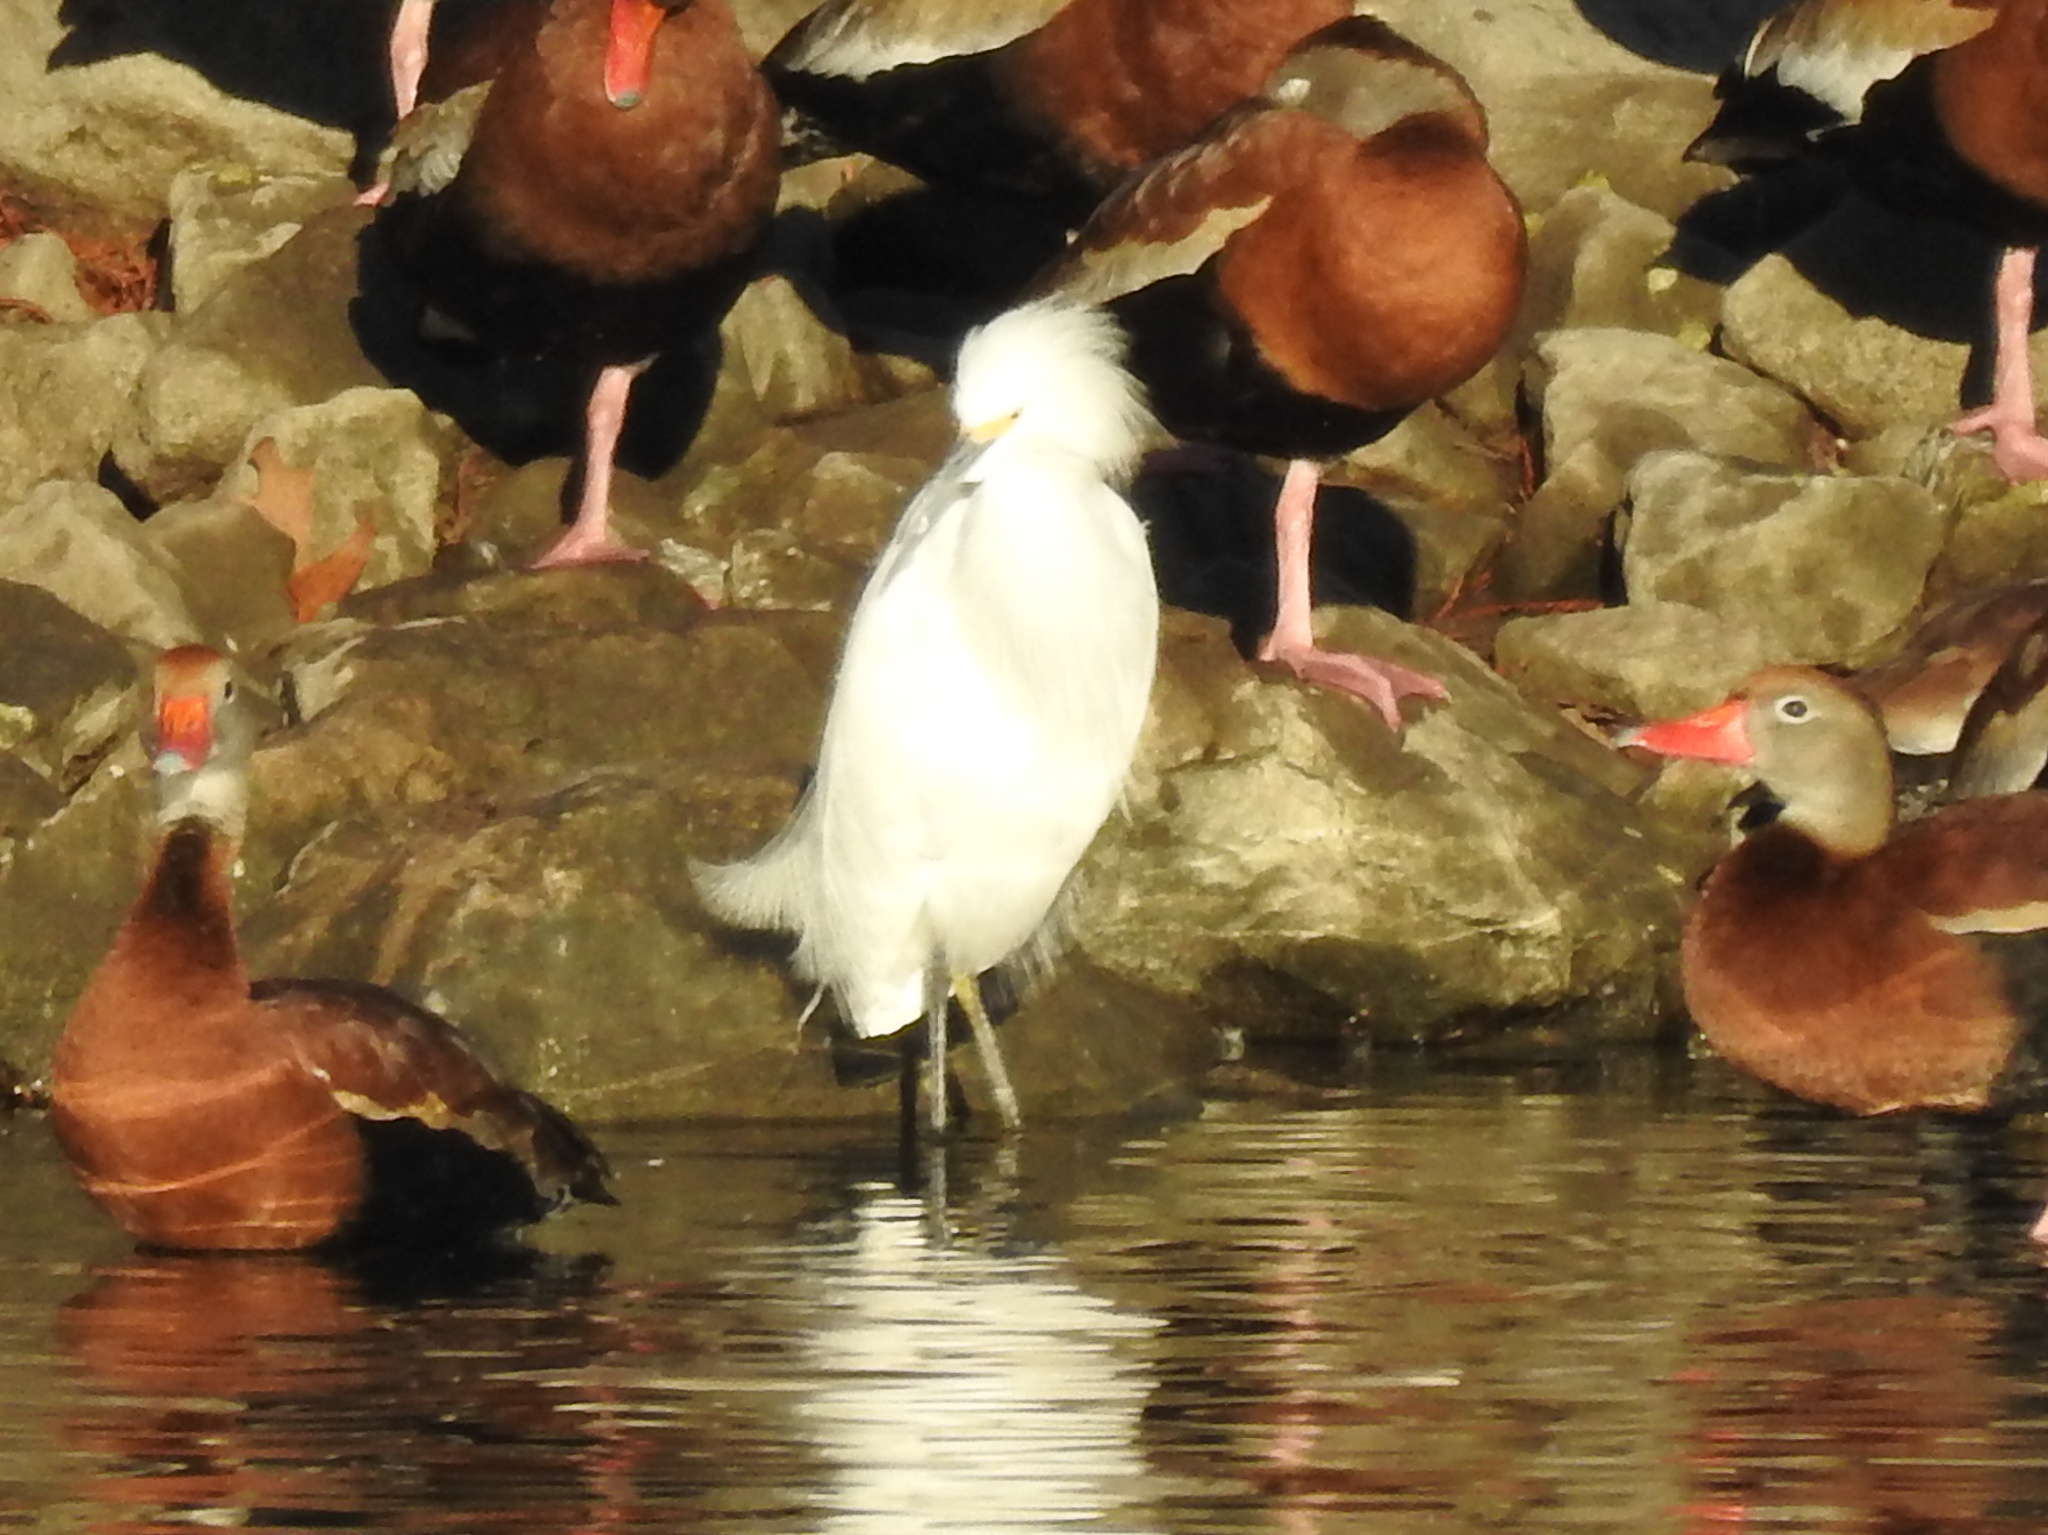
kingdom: Animalia
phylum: Chordata
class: Aves
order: Pelecaniformes
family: Ardeidae
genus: Egretta
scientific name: Egretta thula
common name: Snowy egret
